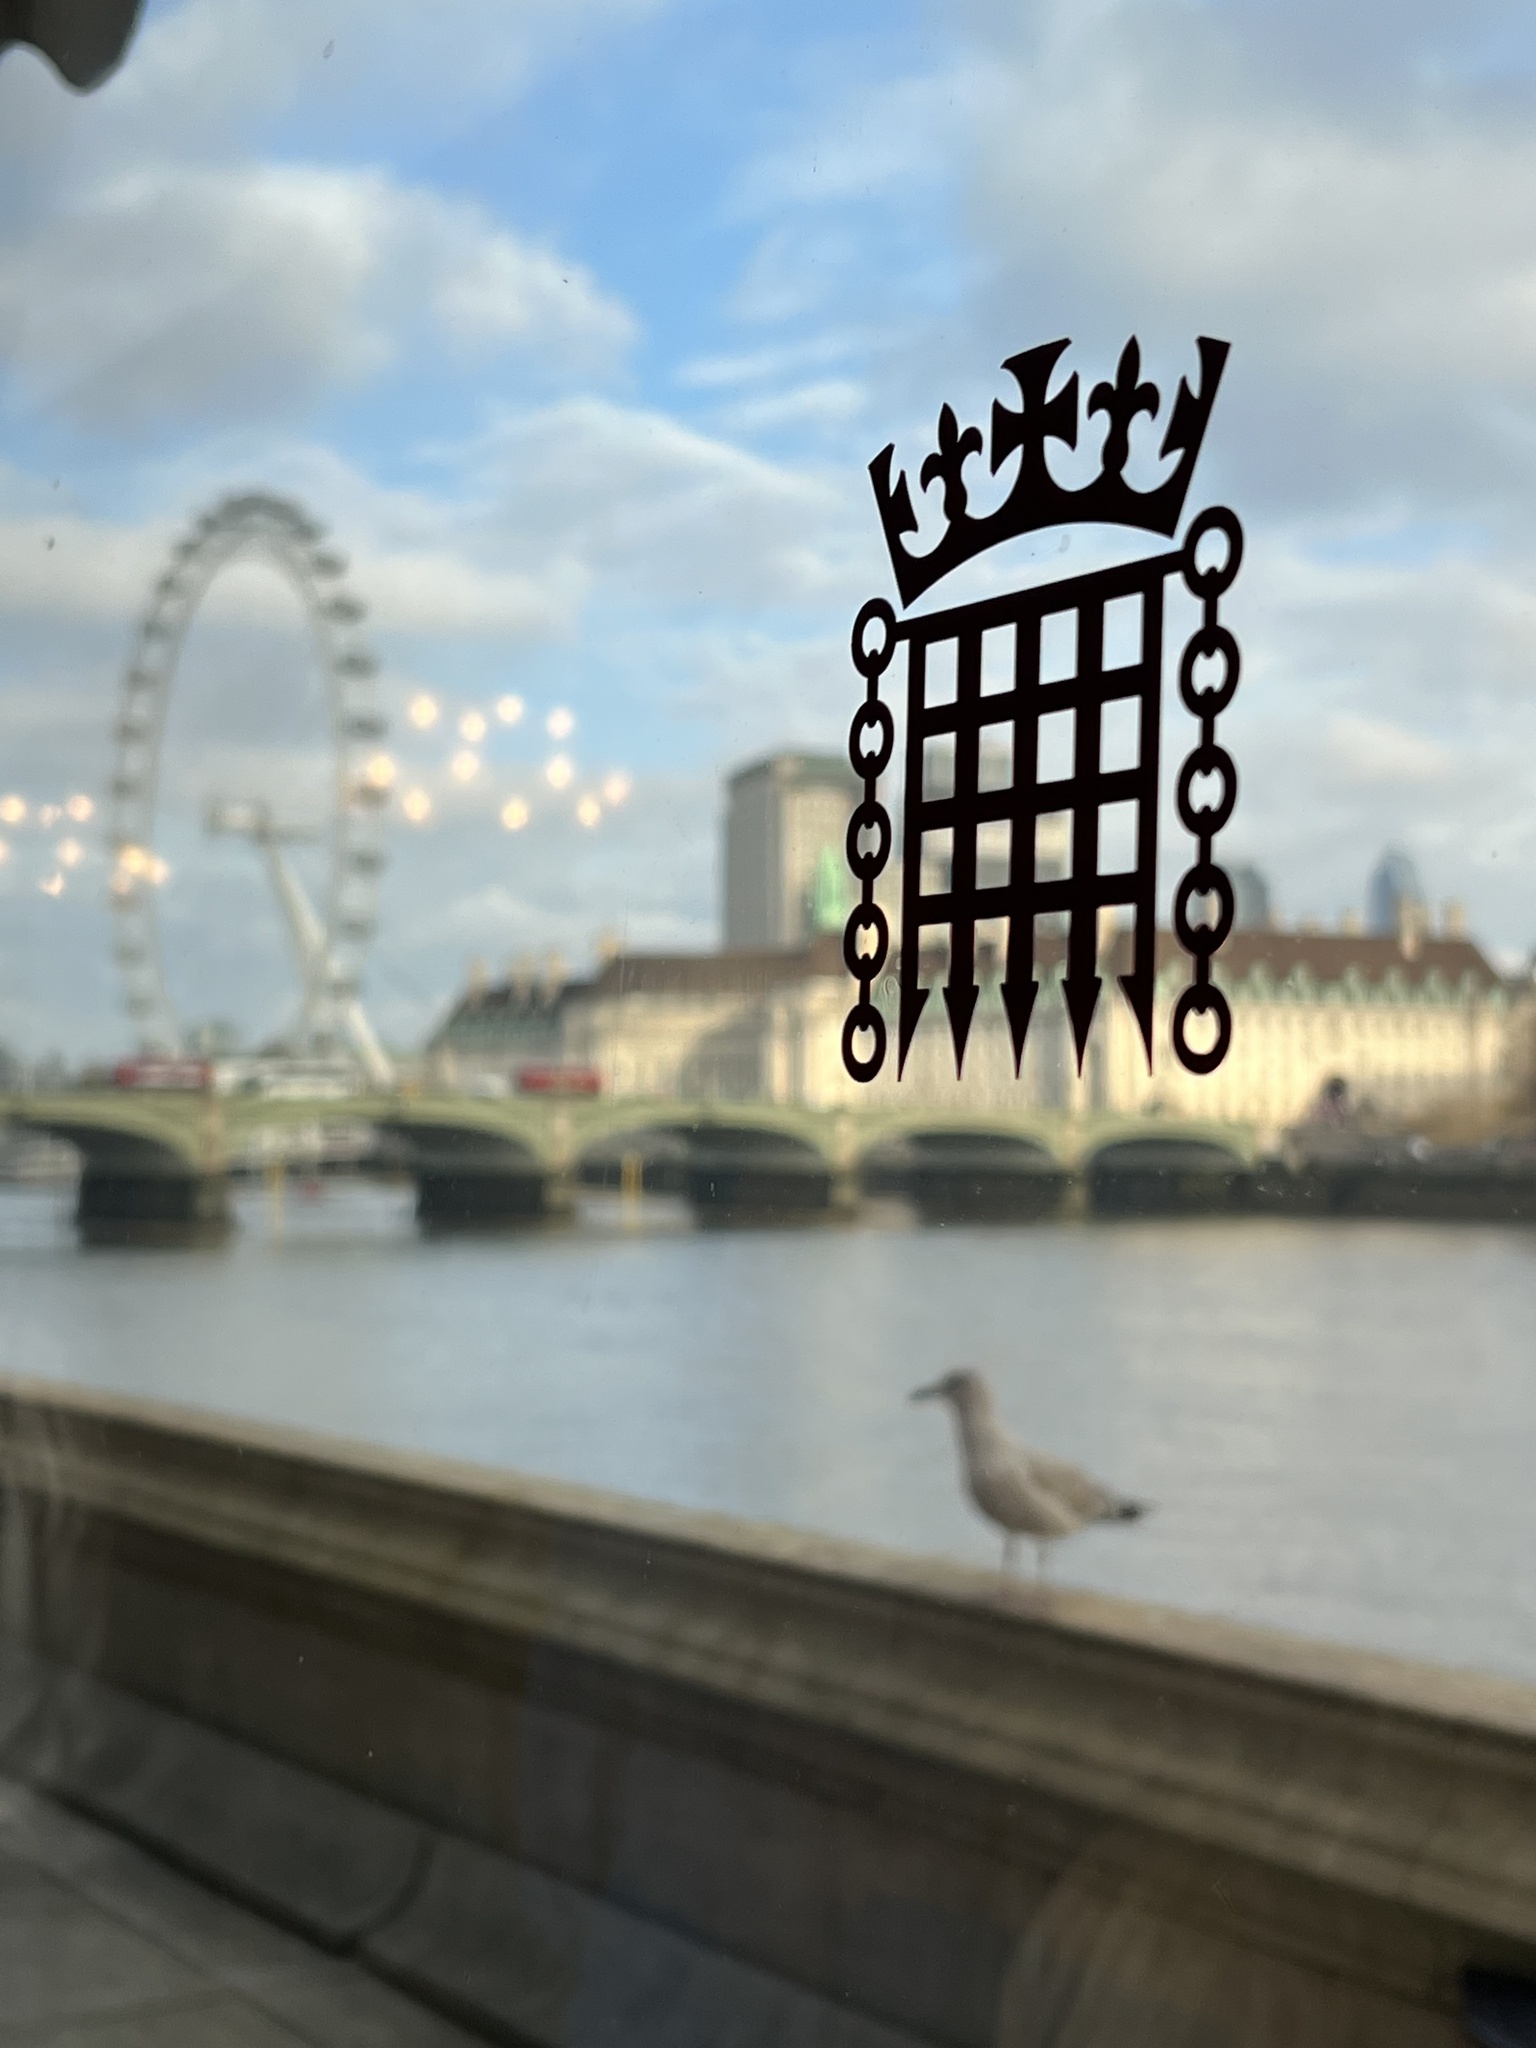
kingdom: Animalia
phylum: Chordata
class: Aves
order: Charadriiformes
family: Laridae
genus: Larus
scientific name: Larus argentatus
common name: Herring gull
